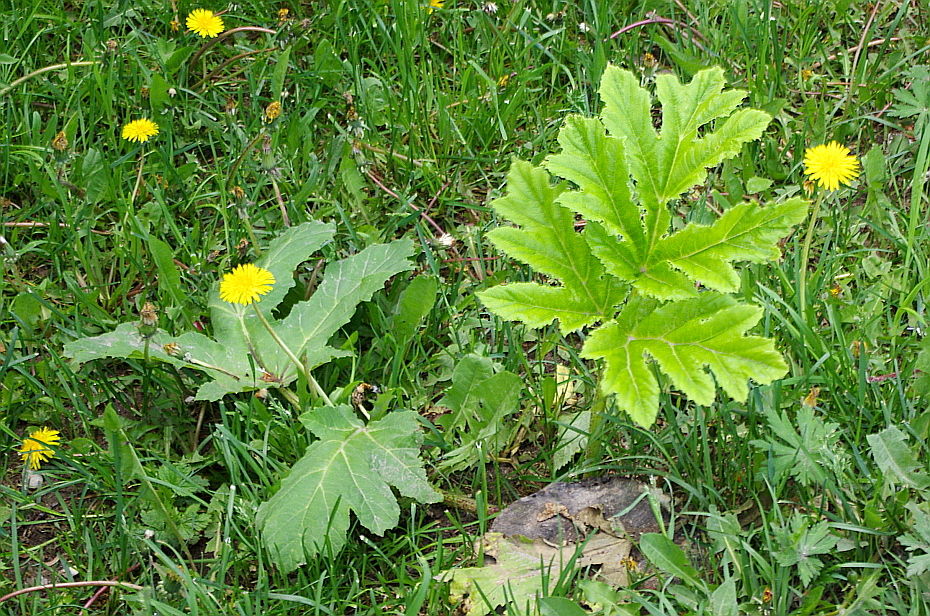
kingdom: Plantae
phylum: Tracheophyta
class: Magnoliopsida
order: Apiales
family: Apiaceae
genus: Heracleum
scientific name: Heracleum sosnowskyi
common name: Sosnowsky's hogweed
